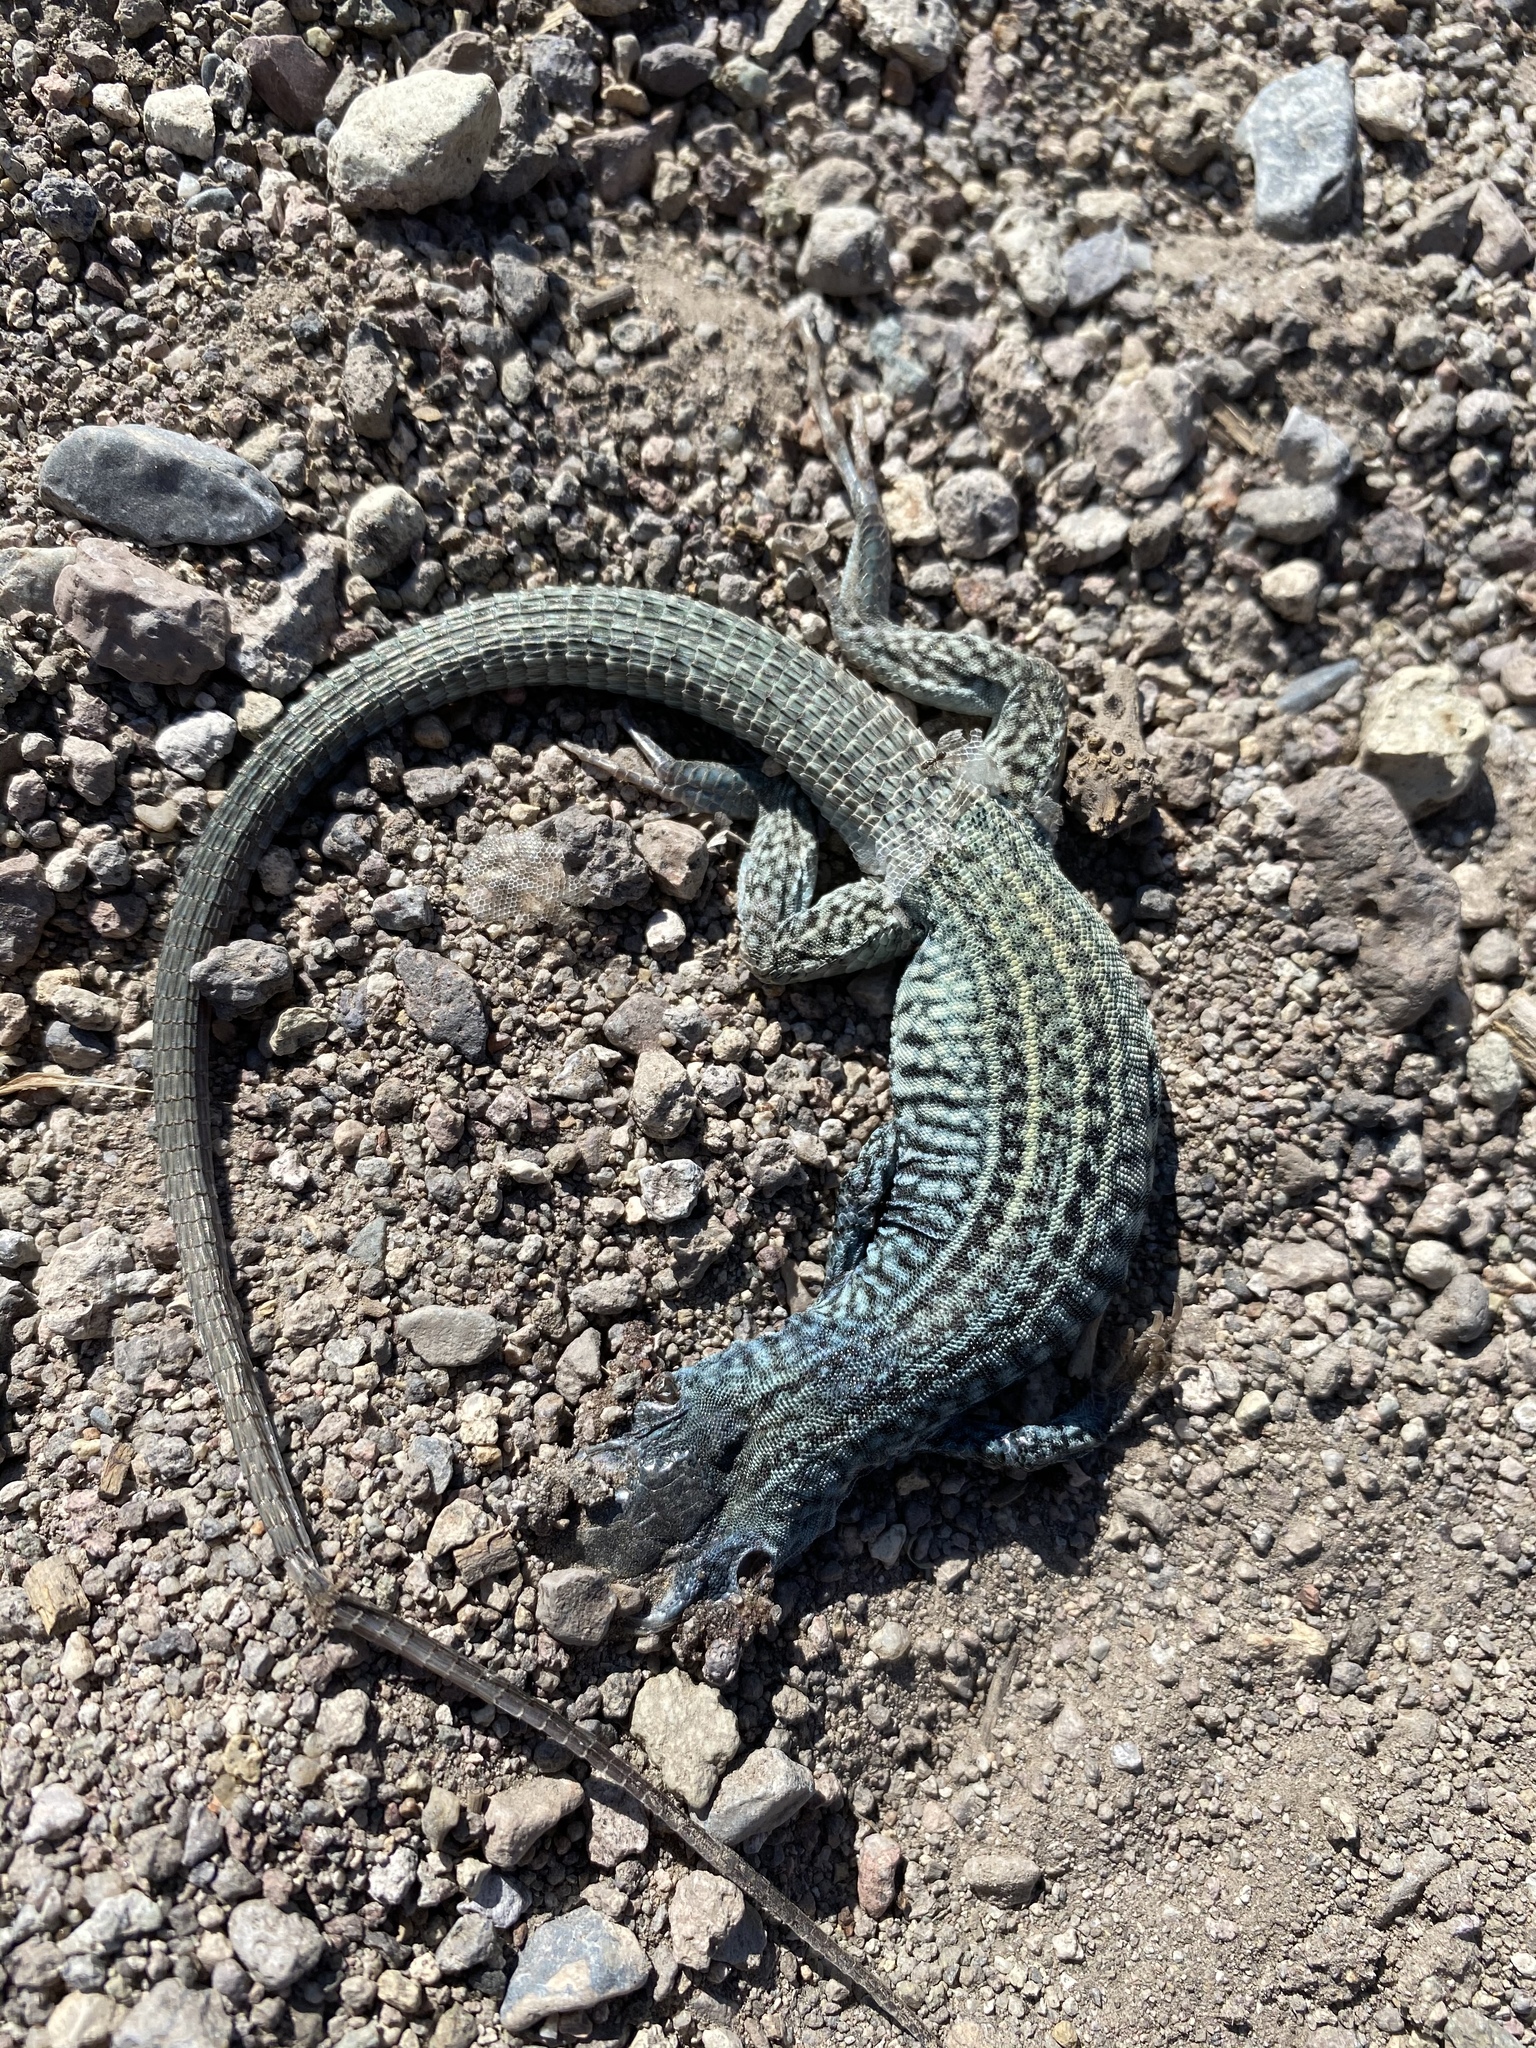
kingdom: Animalia
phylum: Chordata
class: Squamata
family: Teiidae
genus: Aspidoscelis
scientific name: Aspidoscelis tigris
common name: Tiger whiptail
